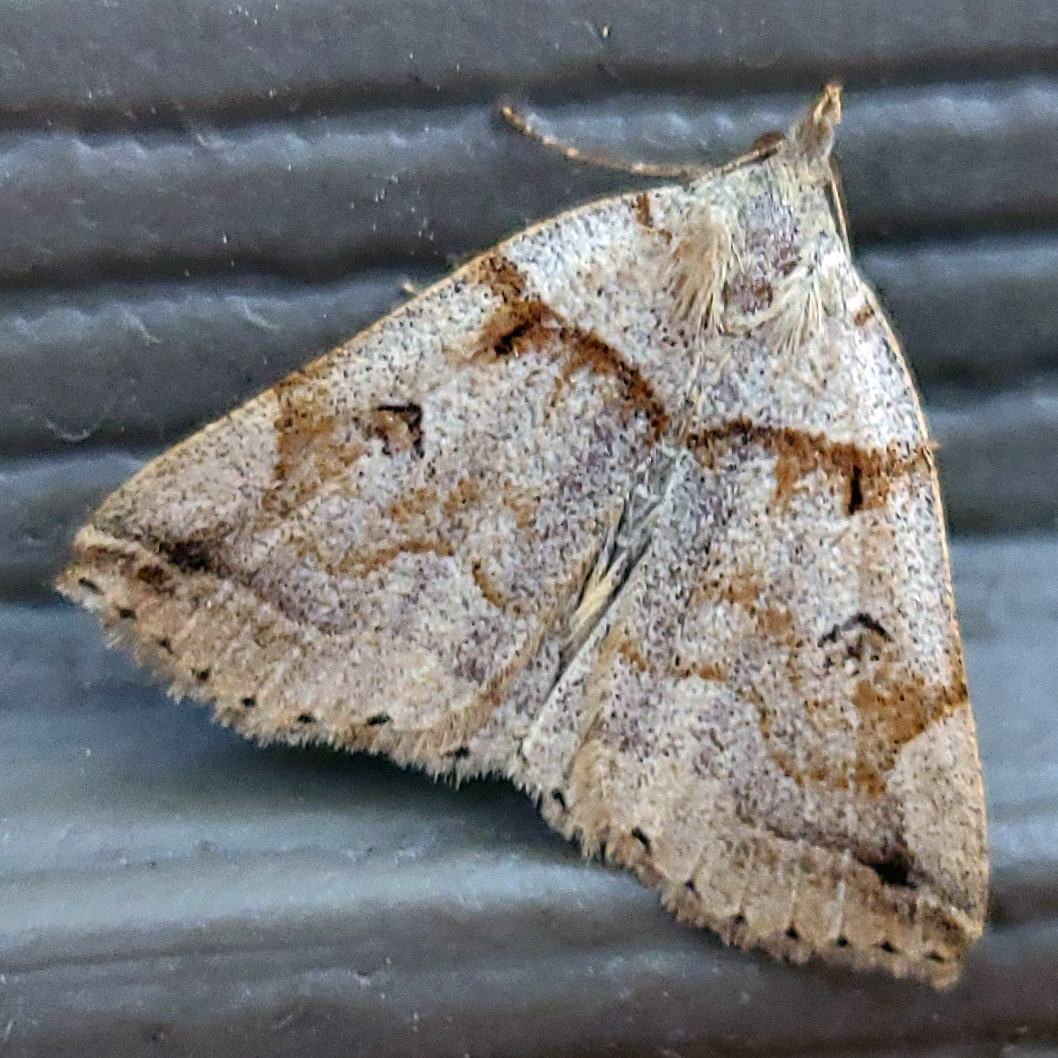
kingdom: Animalia
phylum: Arthropoda
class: Insecta
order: Lepidoptera
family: Erebidae
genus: Zanclognatha
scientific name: Zanclognatha laevigata
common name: Variable fan-foot
